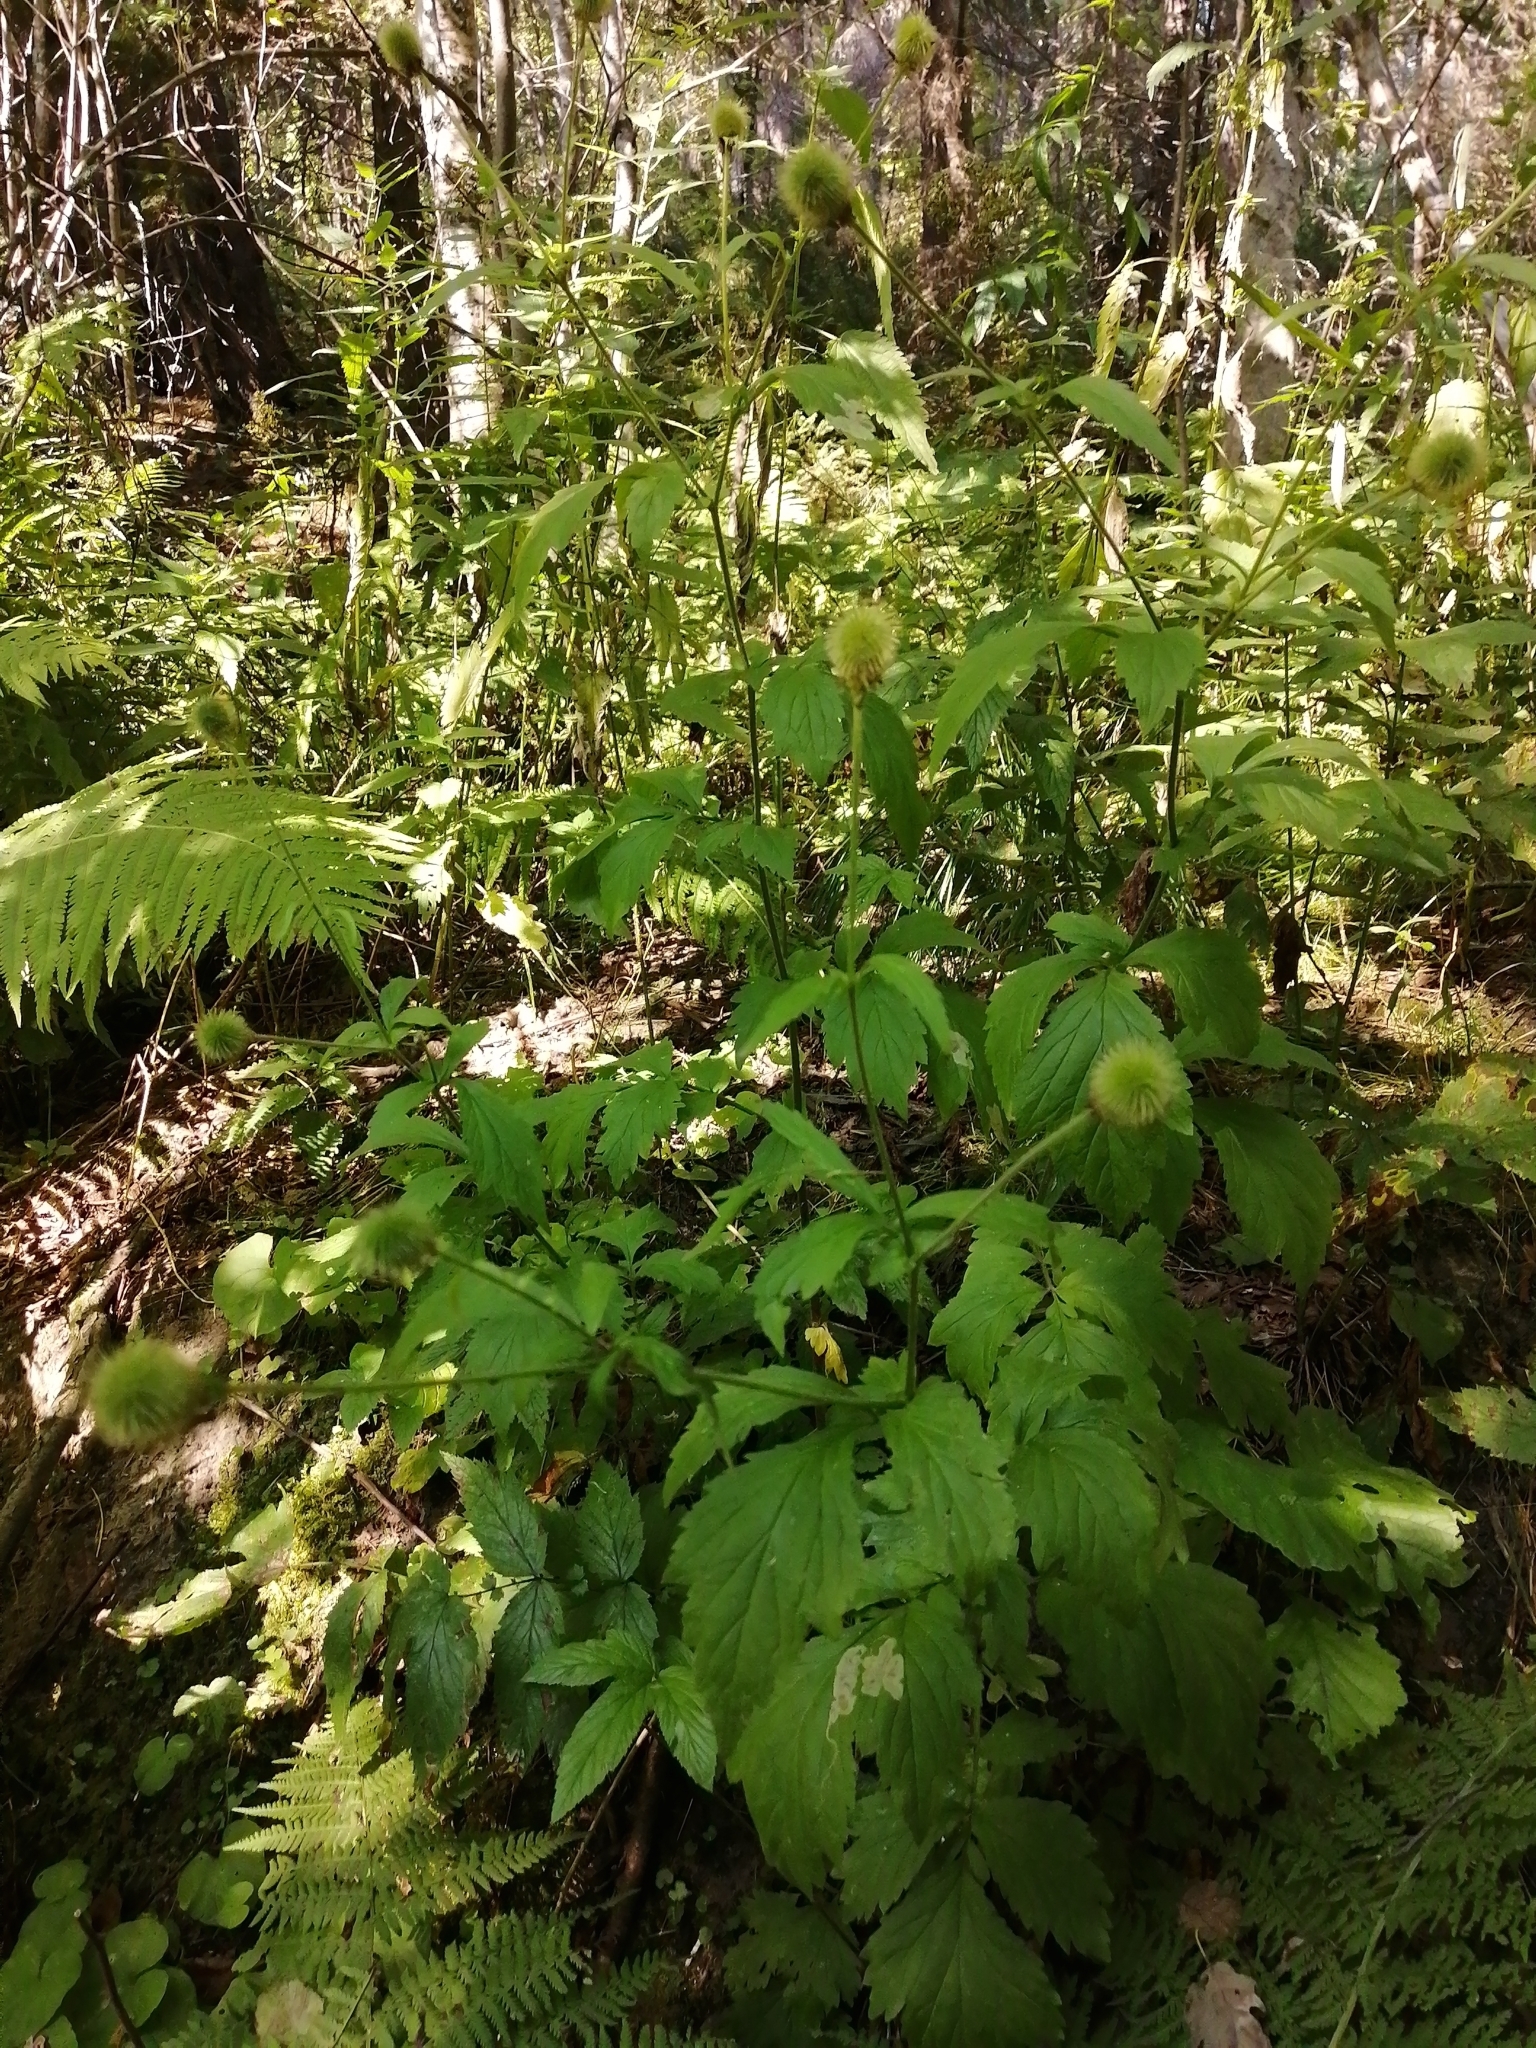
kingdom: Plantae
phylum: Tracheophyta
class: Magnoliopsida
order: Rosales
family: Rosaceae
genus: Geum
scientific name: Geum aleppicum
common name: Yellow avens
